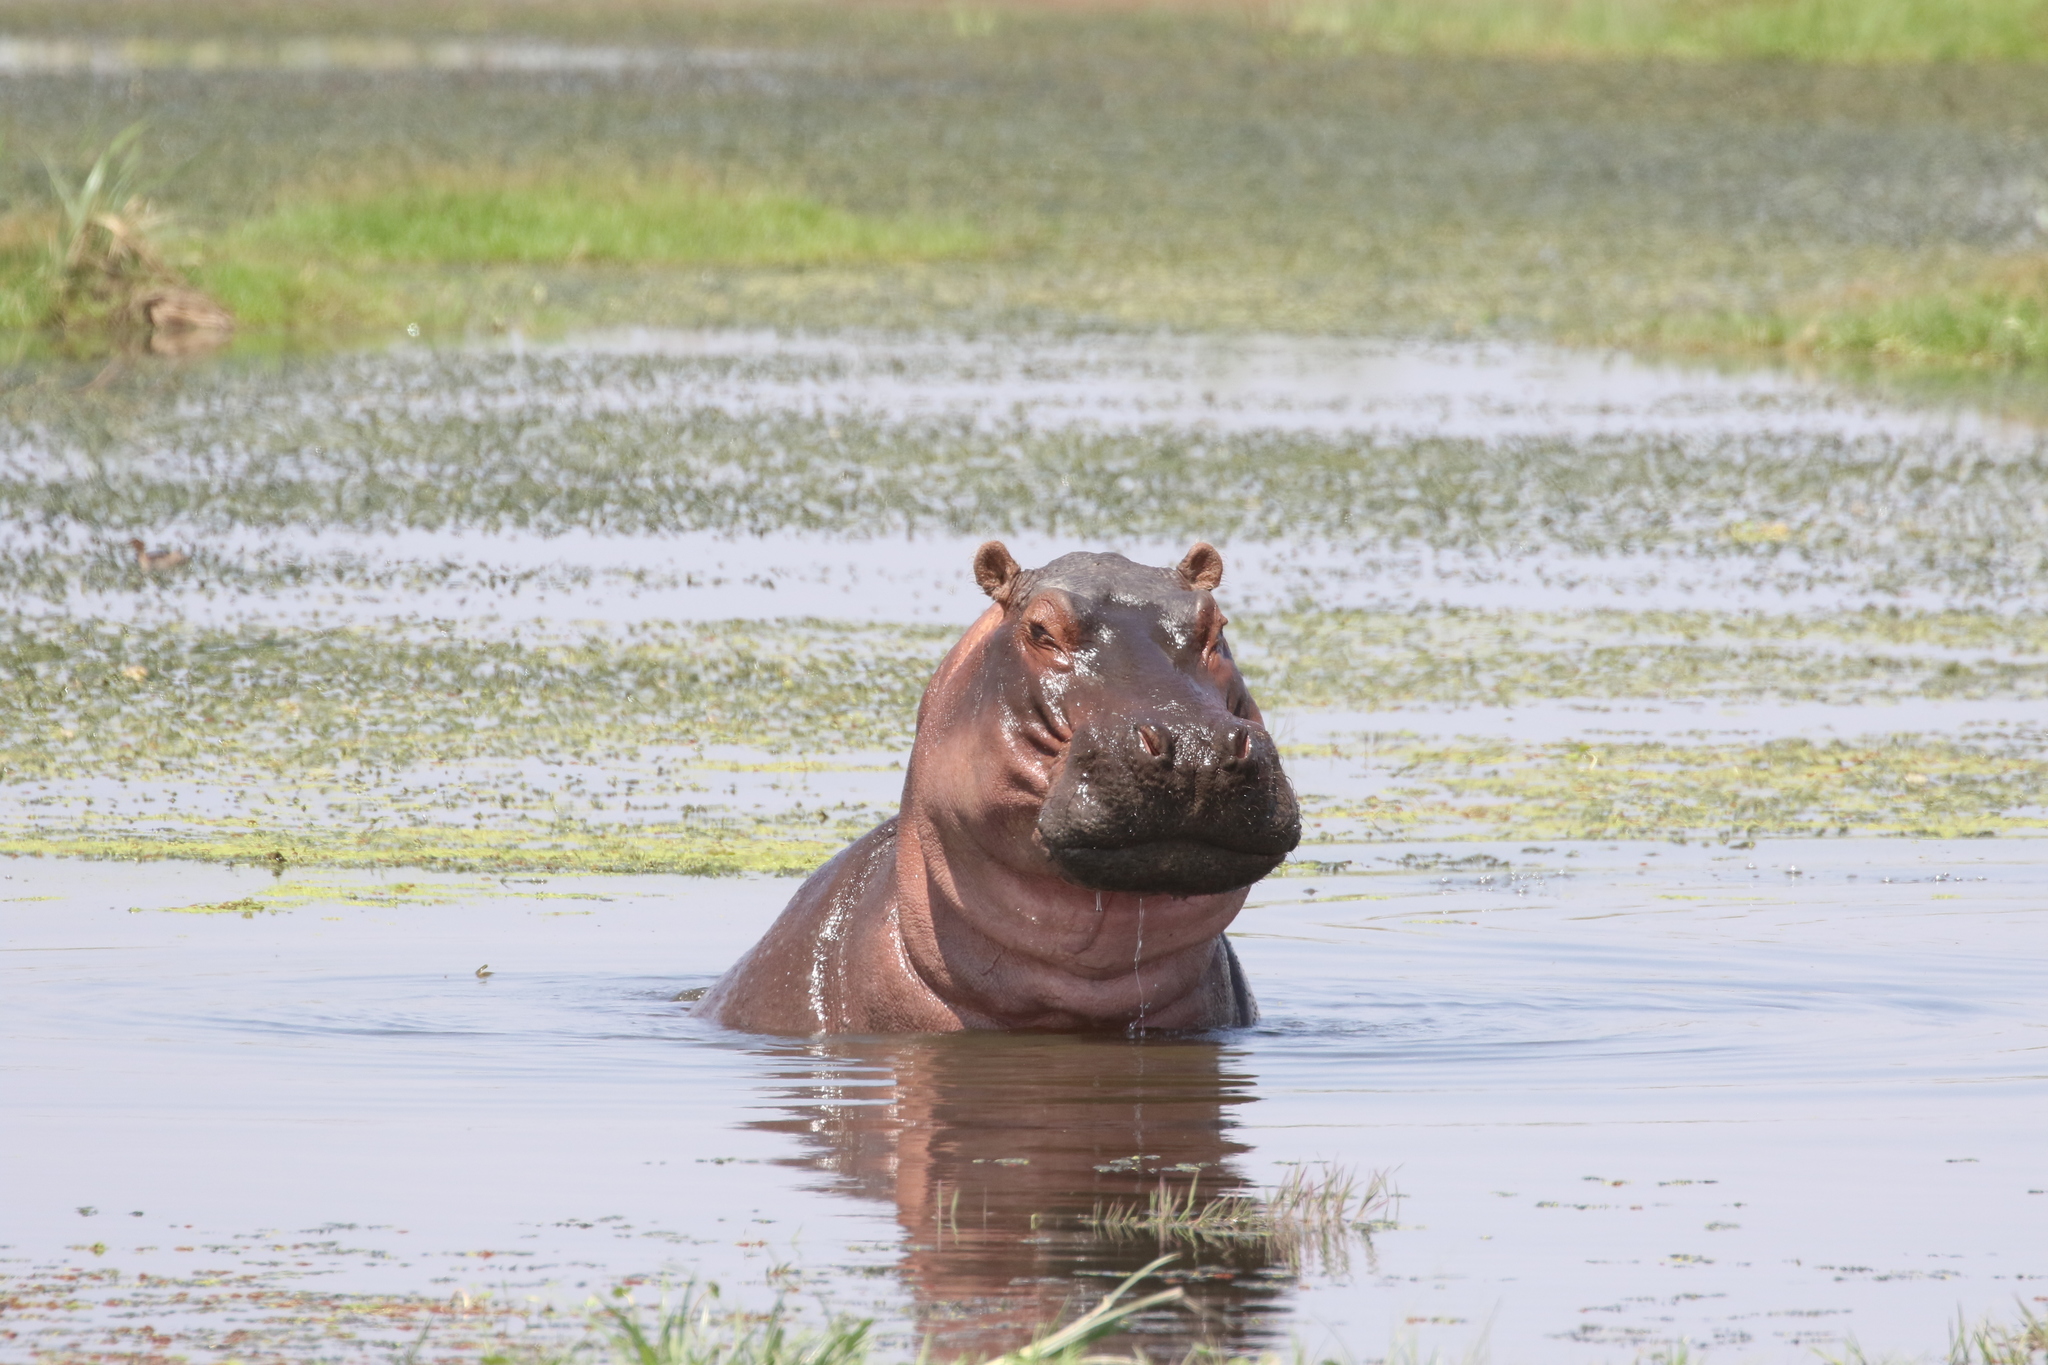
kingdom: Animalia
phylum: Chordata
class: Mammalia
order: Artiodactyla
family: Hippopotamidae
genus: Hippopotamus
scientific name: Hippopotamus amphibius
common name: Common hippopotamus
